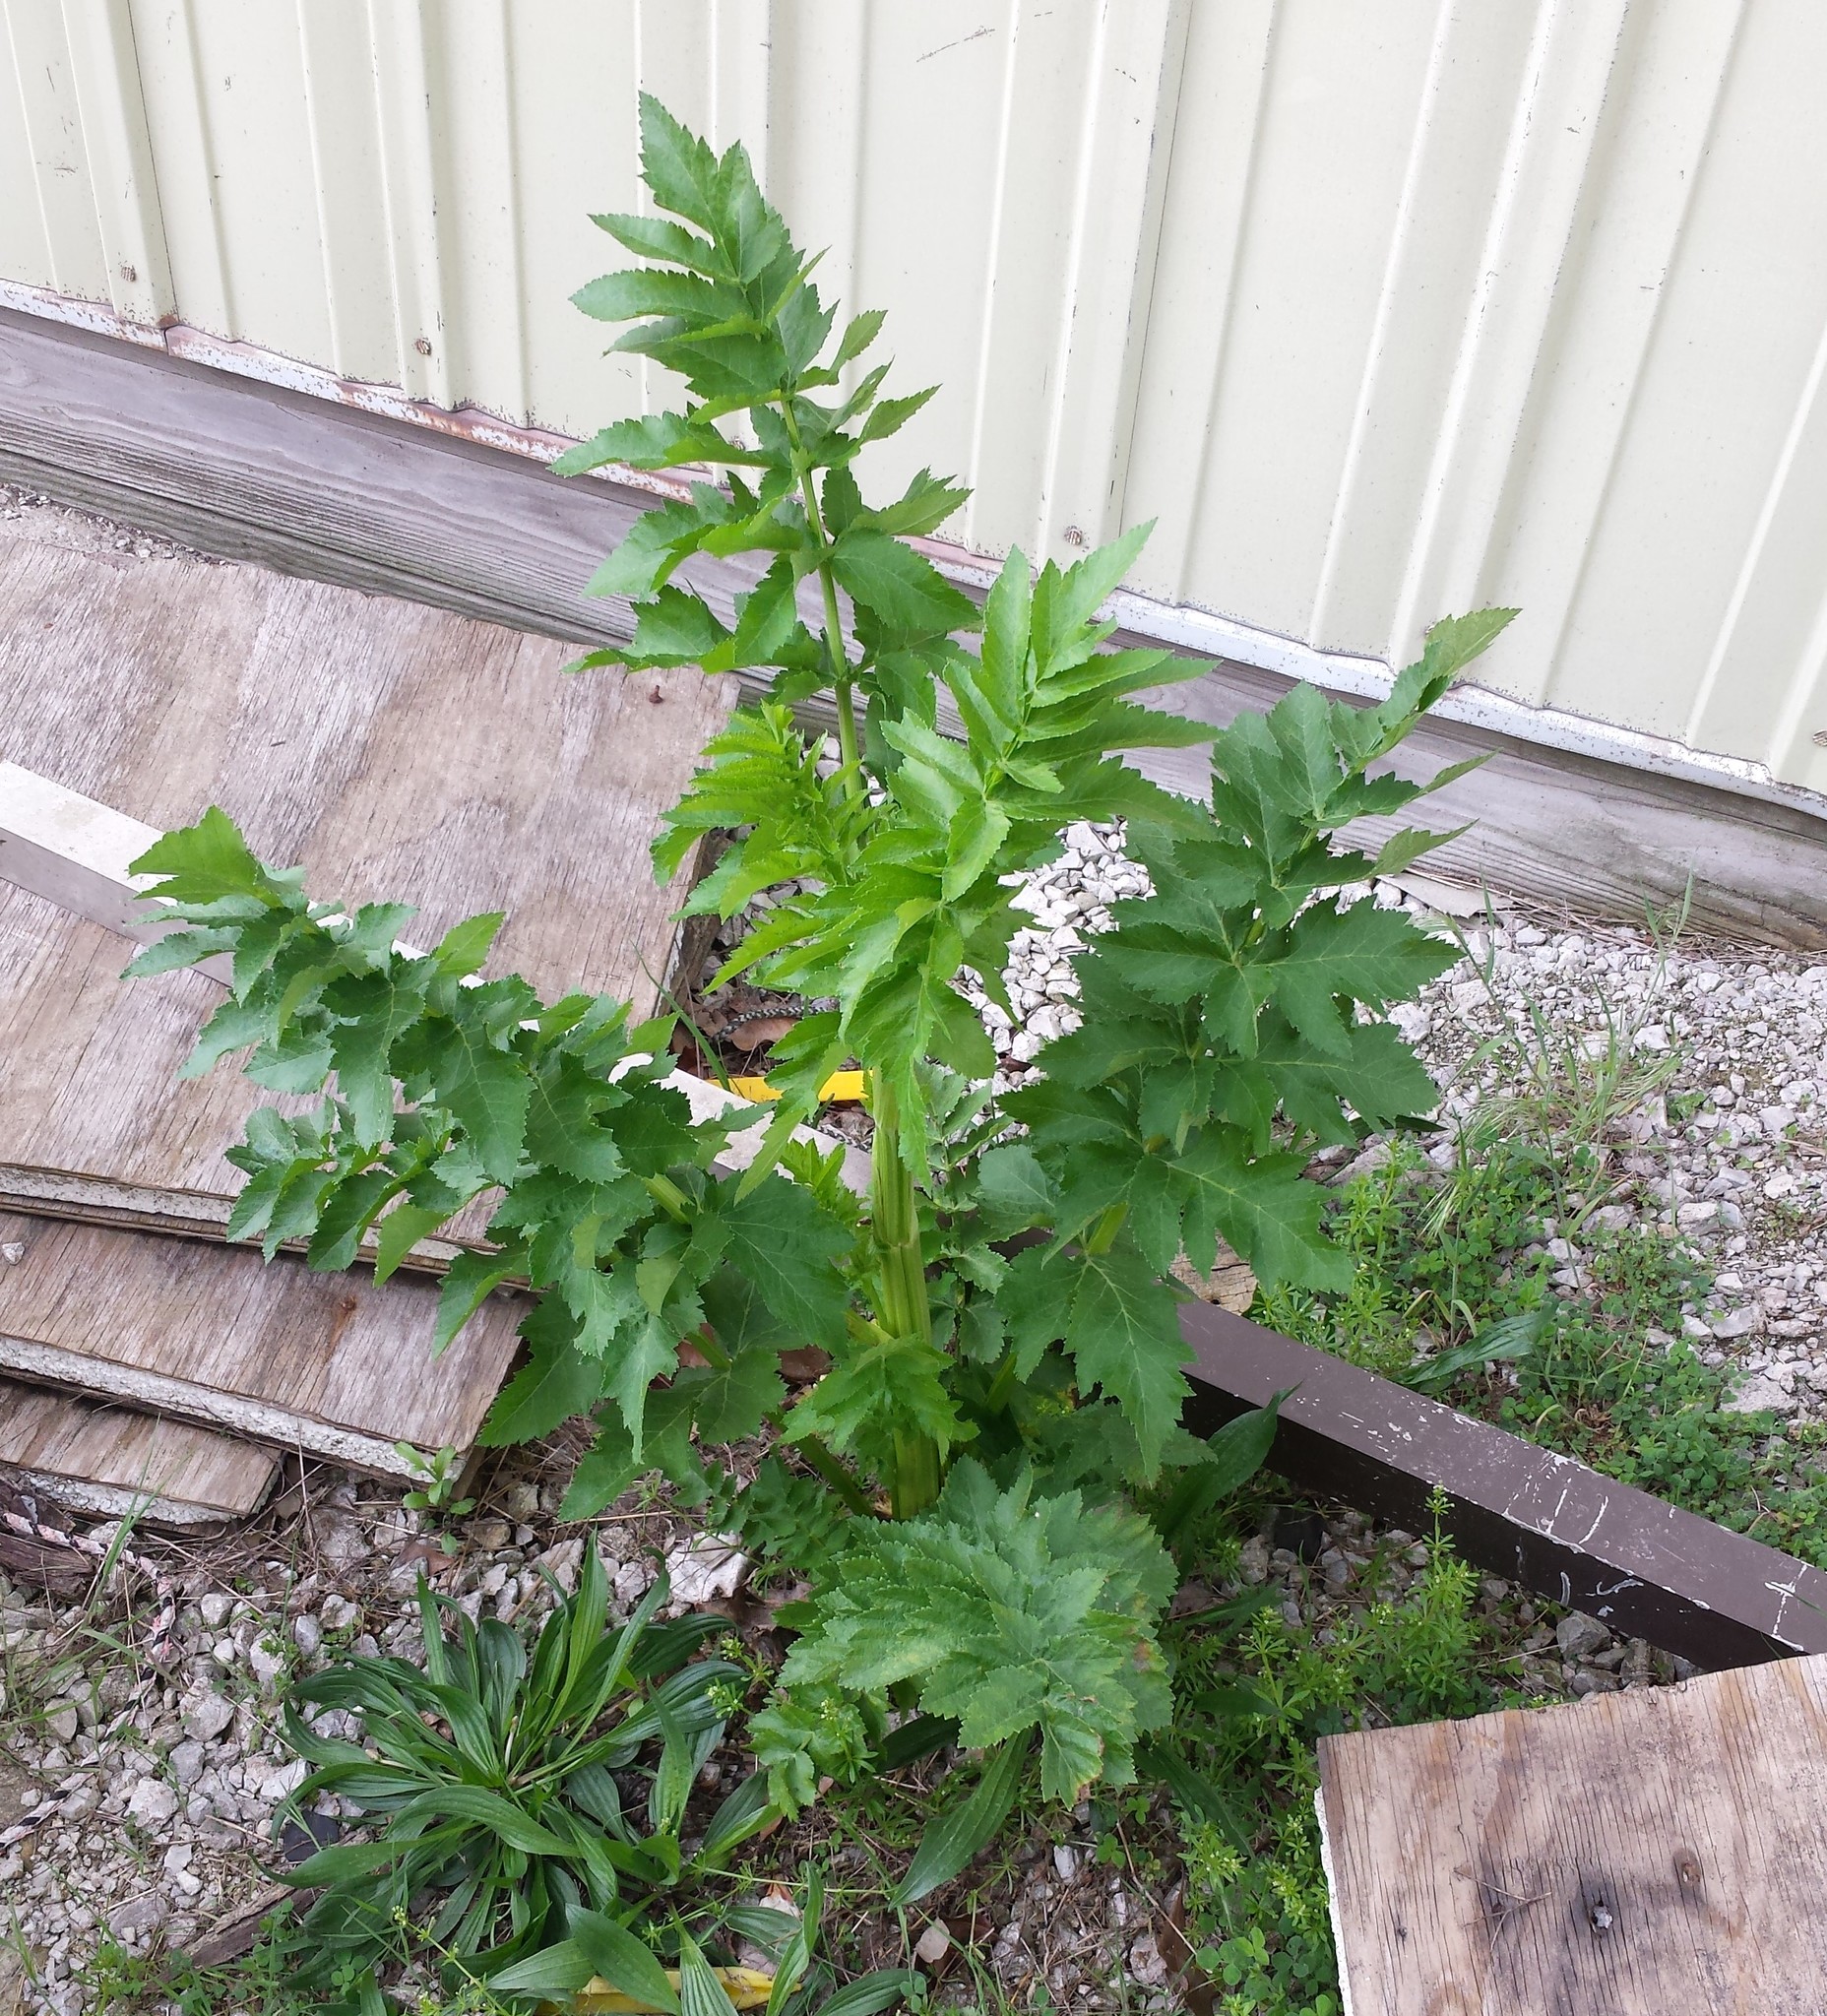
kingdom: Plantae
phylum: Tracheophyta
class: Magnoliopsida
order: Apiales
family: Apiaceae
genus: Pastinaca
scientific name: Pastinaca sativa
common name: Wild parsnip
